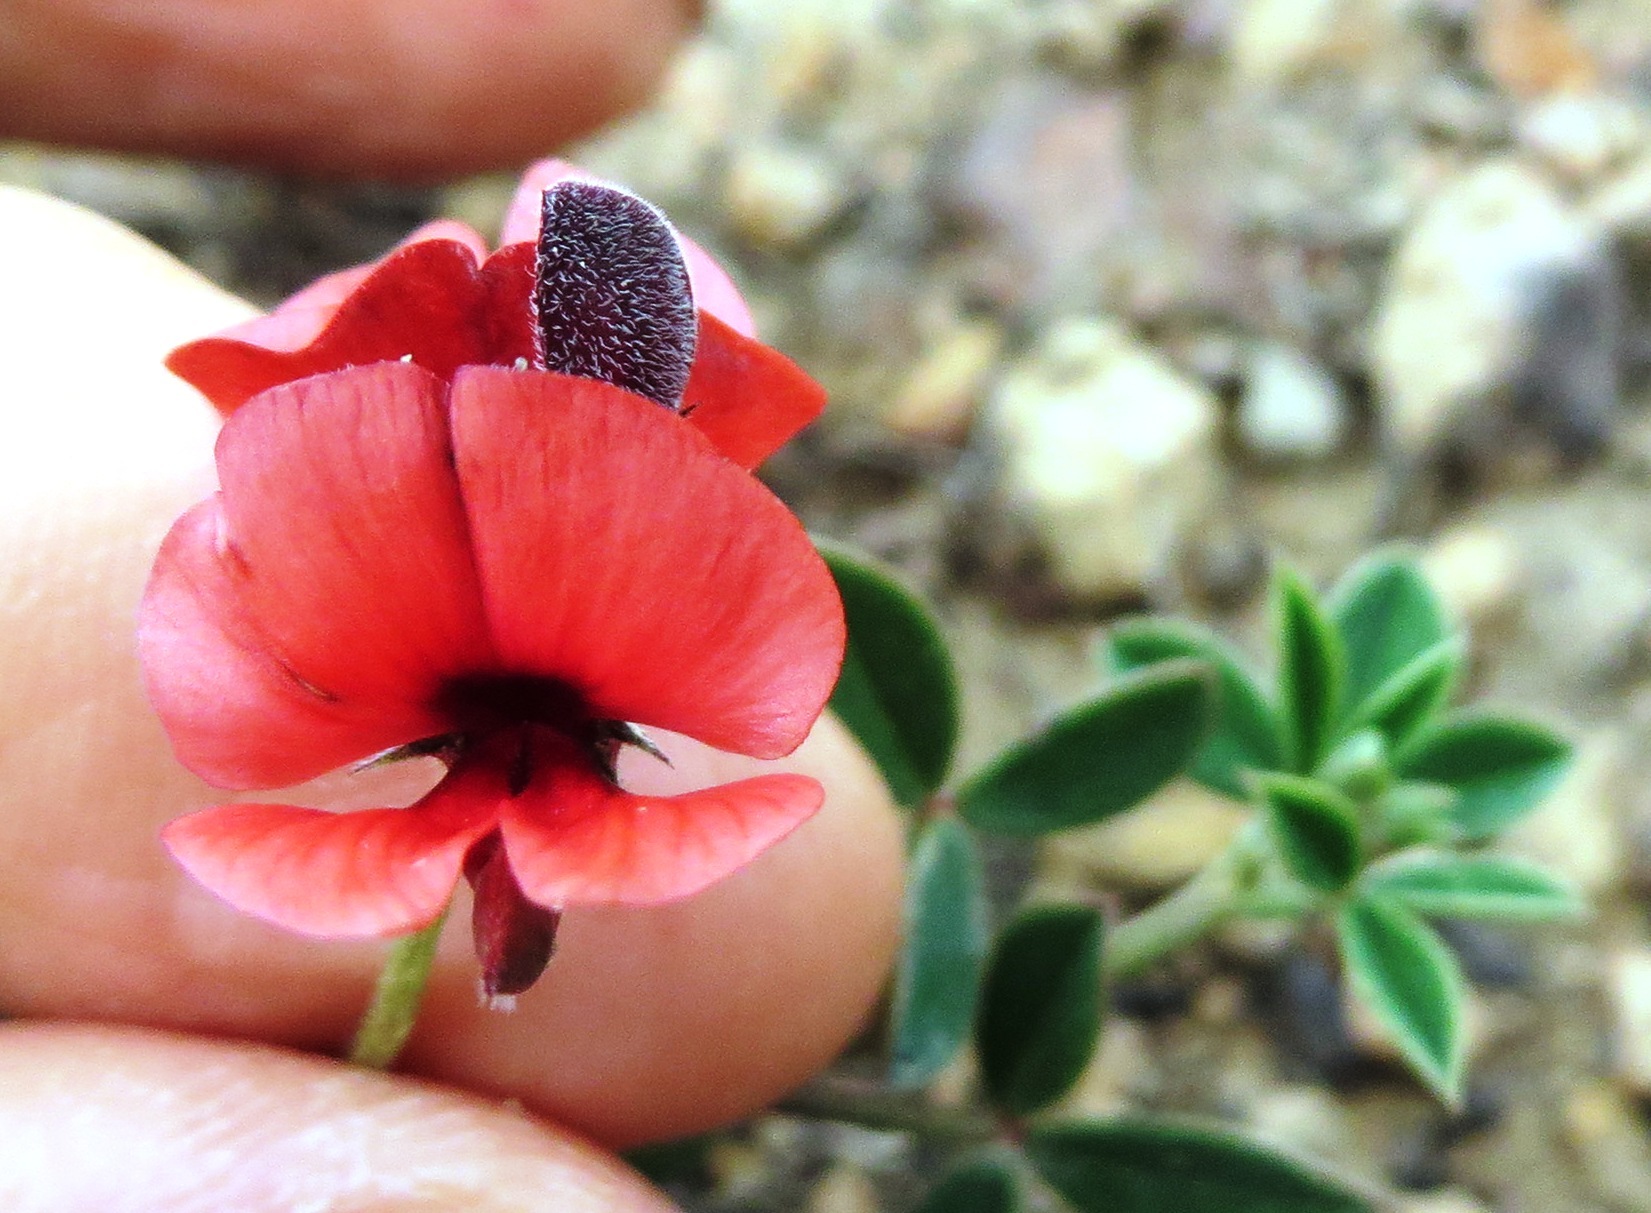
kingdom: Plantae
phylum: Tracheophyta
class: Magnoliopsida
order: Fabales
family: Fabaceae
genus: Indigofera
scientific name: Indigofera heterophylla
